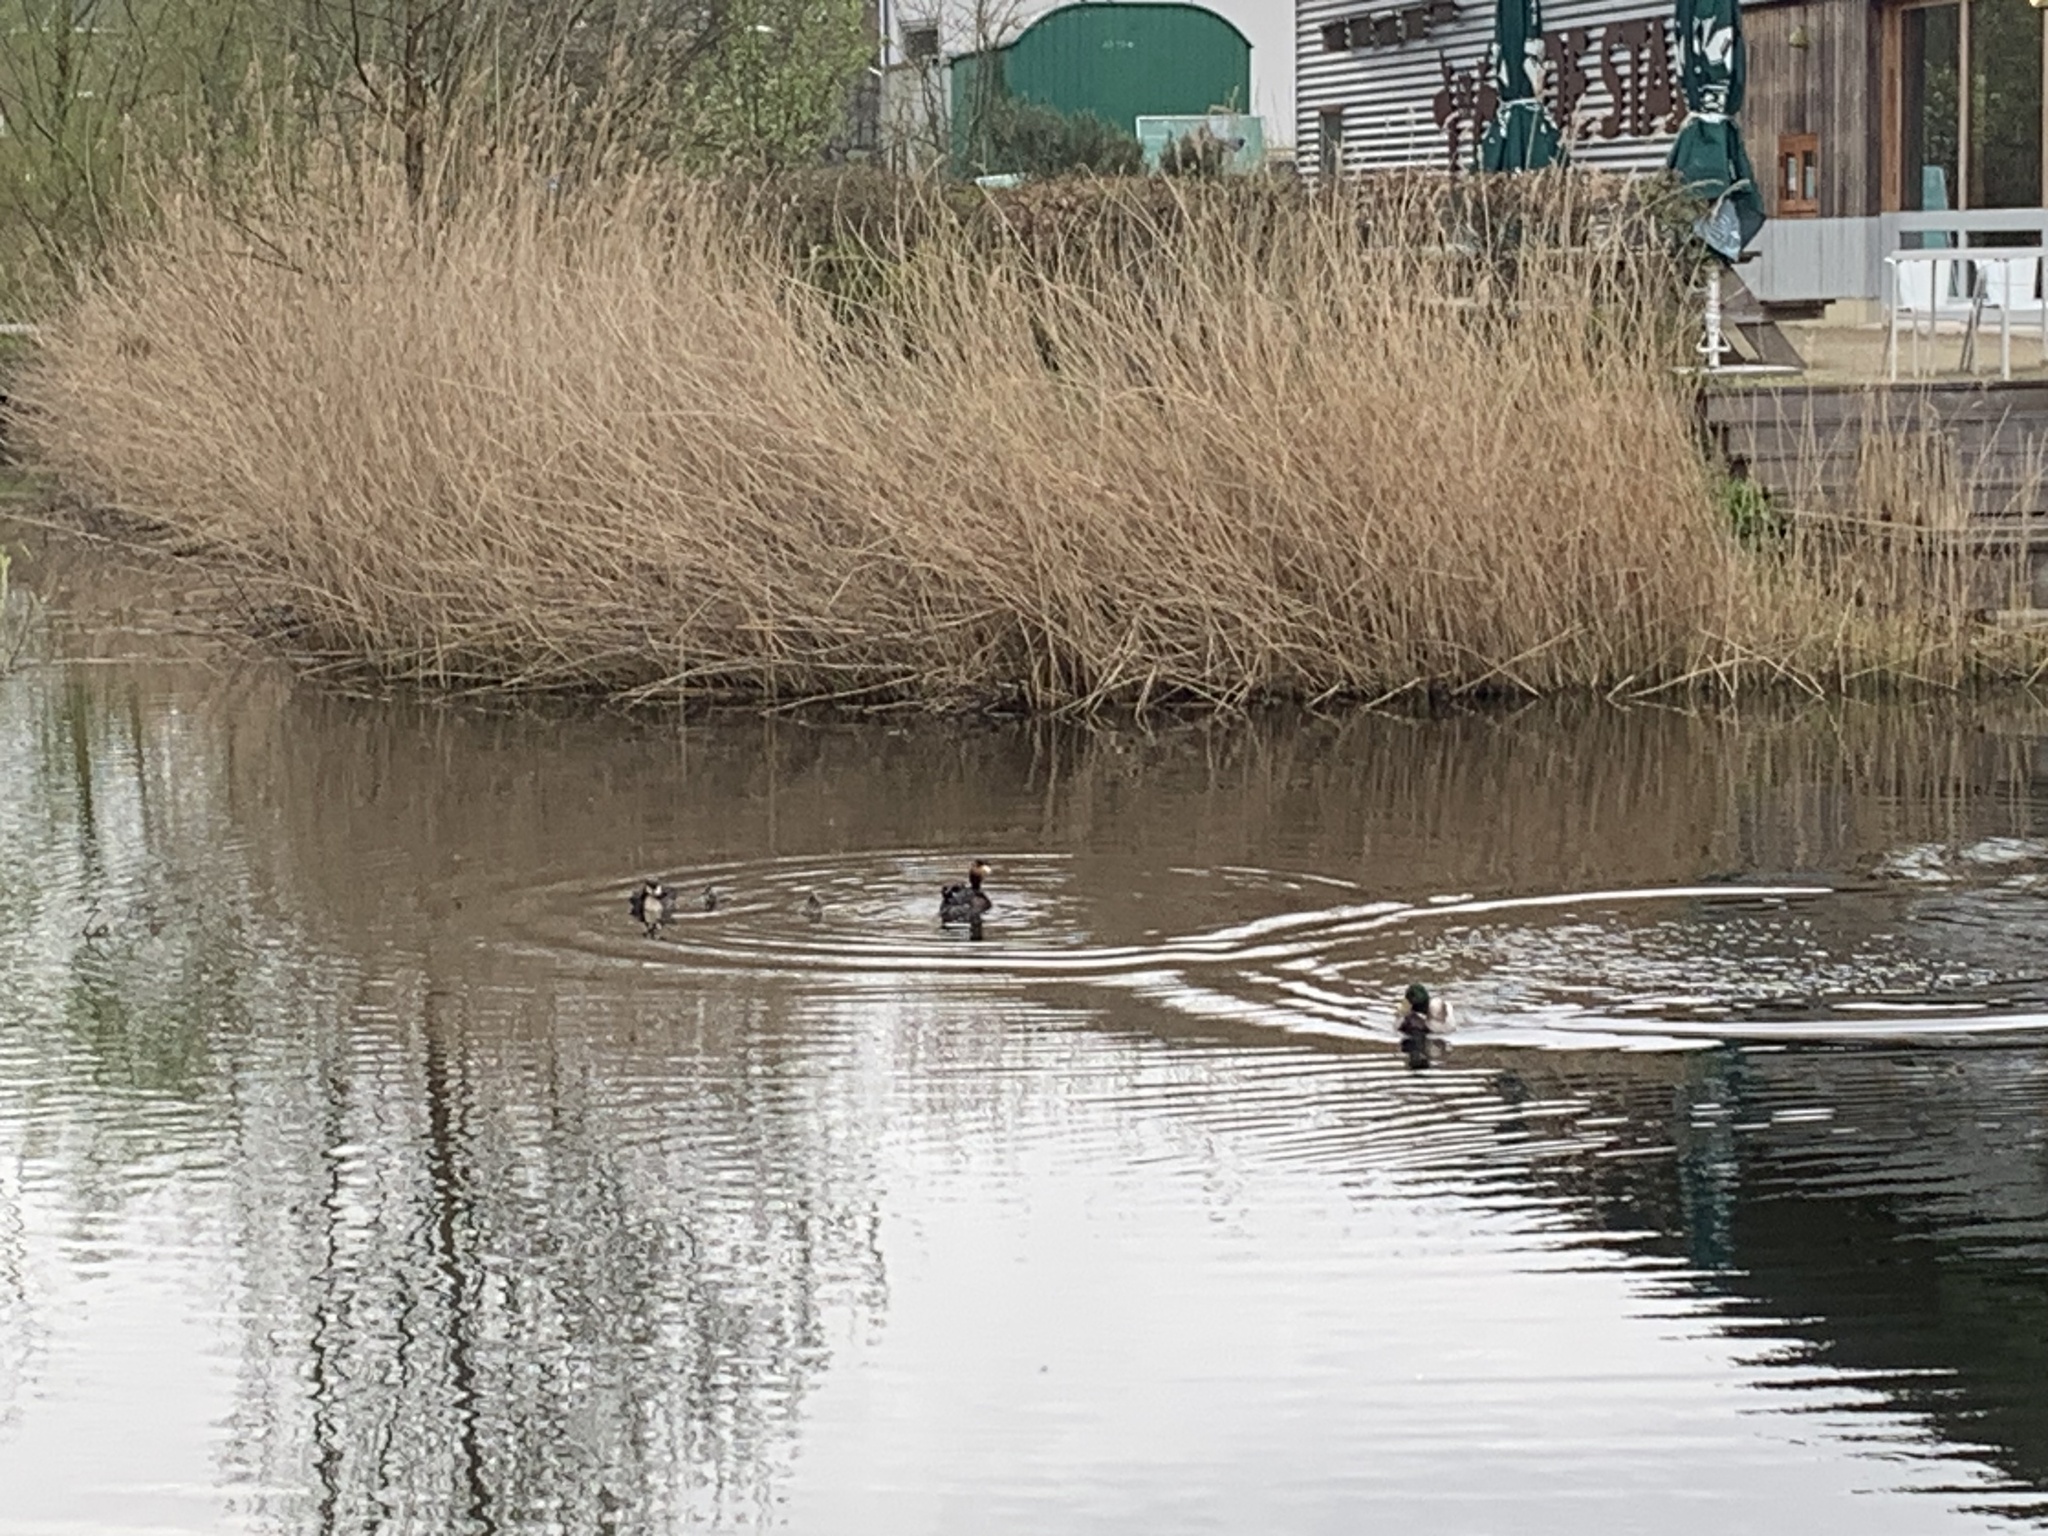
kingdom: Animalia
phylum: Chordata
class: Aves
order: Podicipediformes
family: Podicipedidae
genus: Podiceps
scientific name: Podiceps cristatus
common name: Great crested grebe
